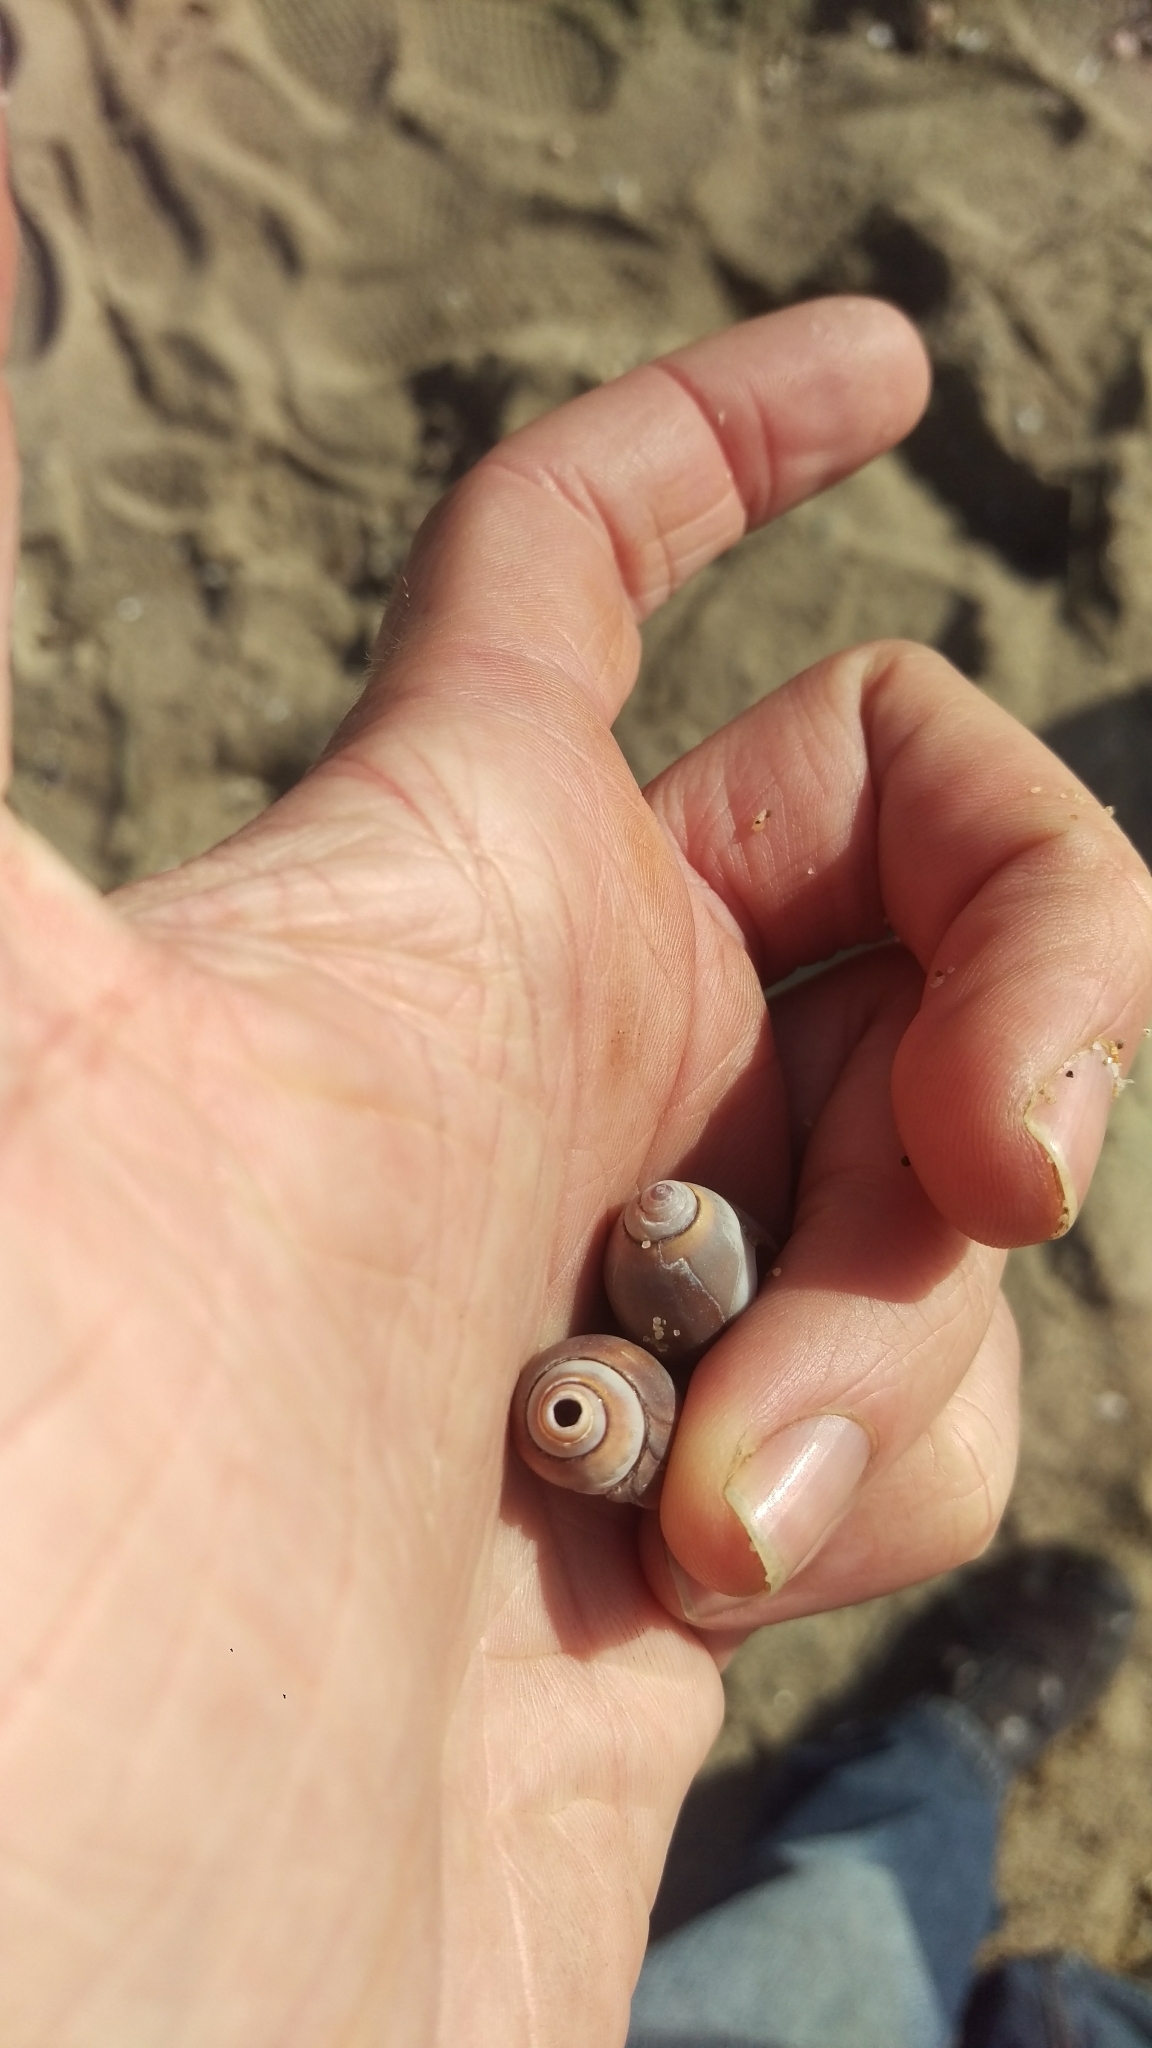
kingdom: Animalia
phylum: Mollusca
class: Gastropoda
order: Neogastropoda
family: Olividae
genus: Callianax
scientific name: Callianax biplicata
